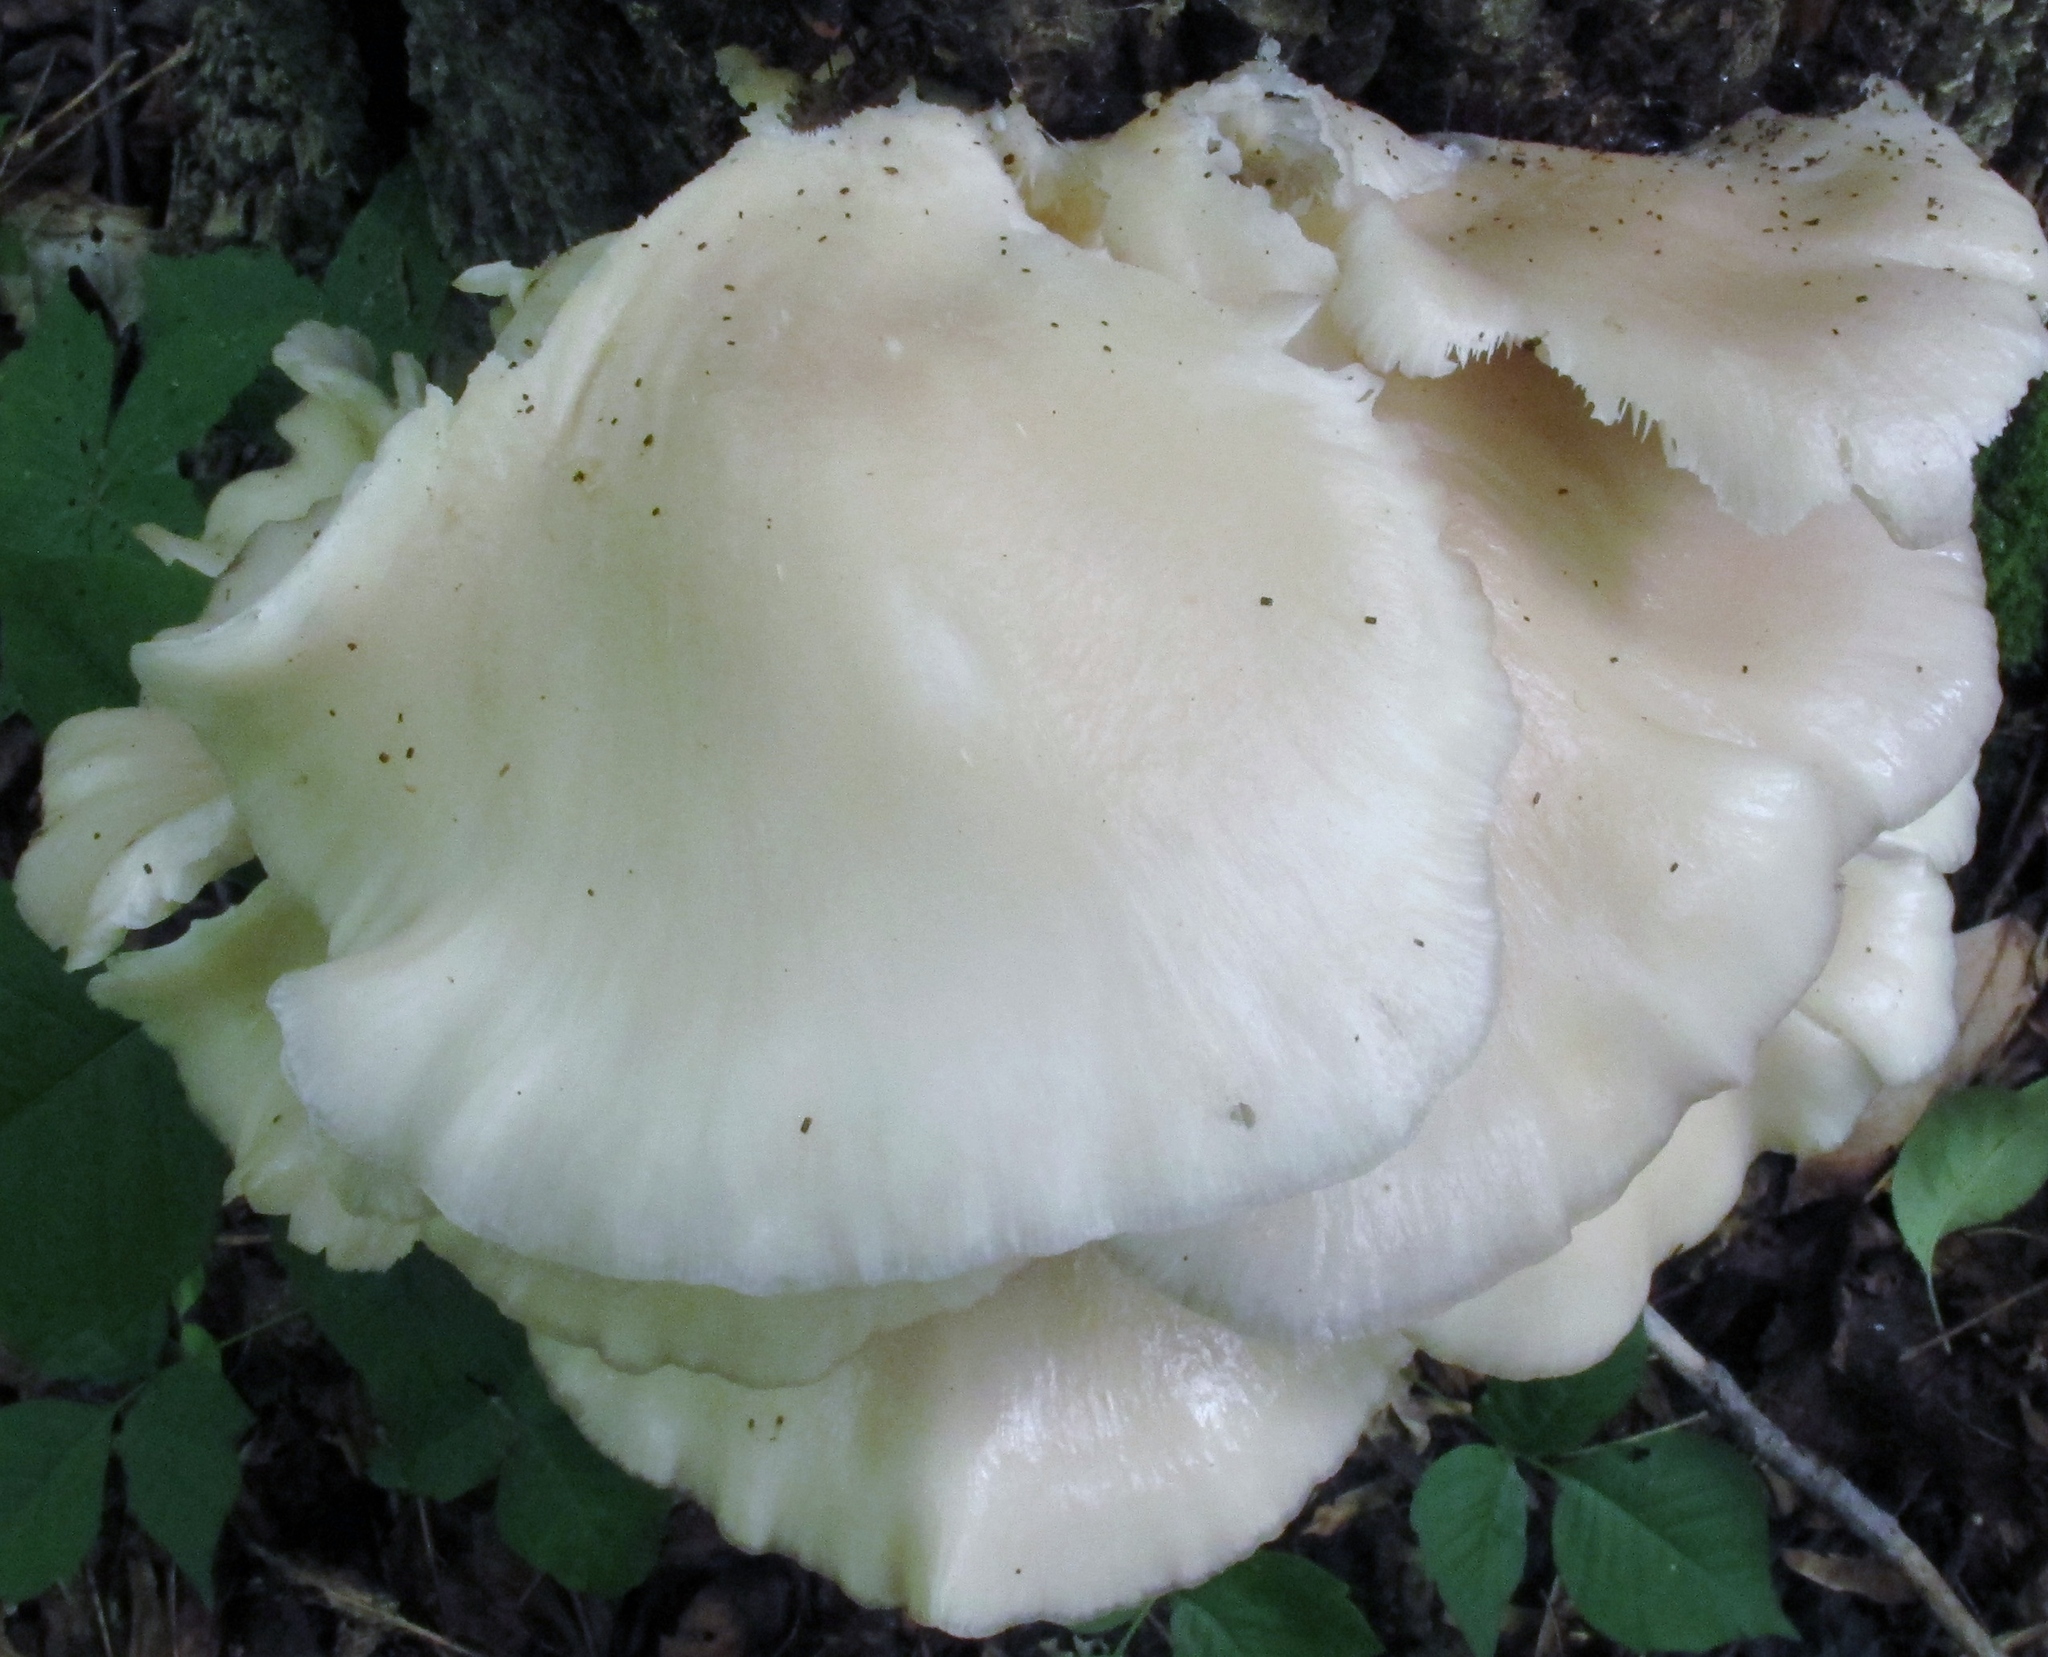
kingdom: Fungi
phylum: Basidiomycota
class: Agaricomycetes
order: Agaricales
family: Pleurotaceae
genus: Pleurotus
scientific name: Pleurotus pulmonarius
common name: Pale oyster
